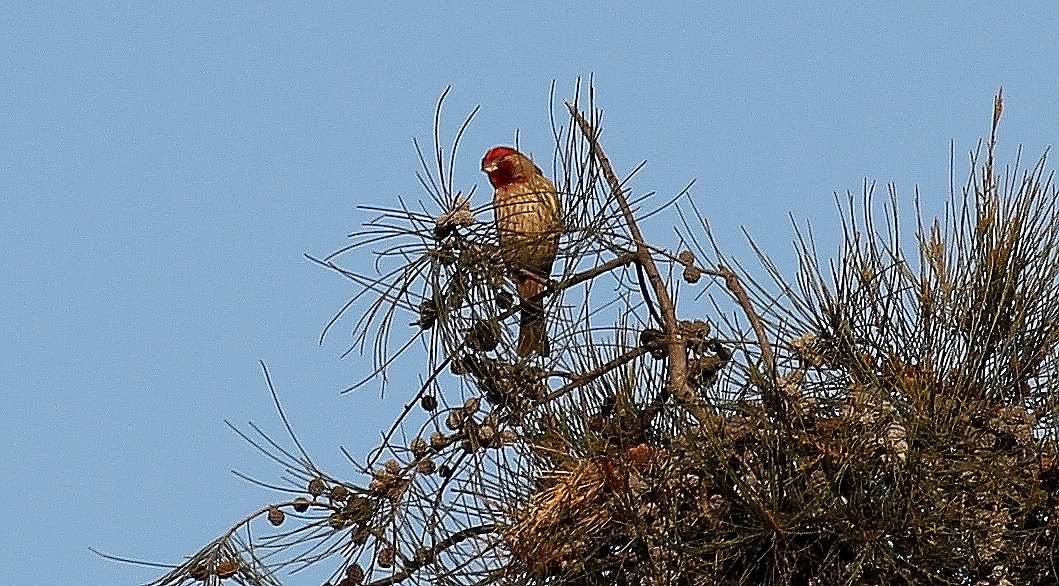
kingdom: Animalia
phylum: Chordata
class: Aves
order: Passeriformes
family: Fringillidae
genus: Haemorhous
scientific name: Haemorhous mexicanus
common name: House finch
